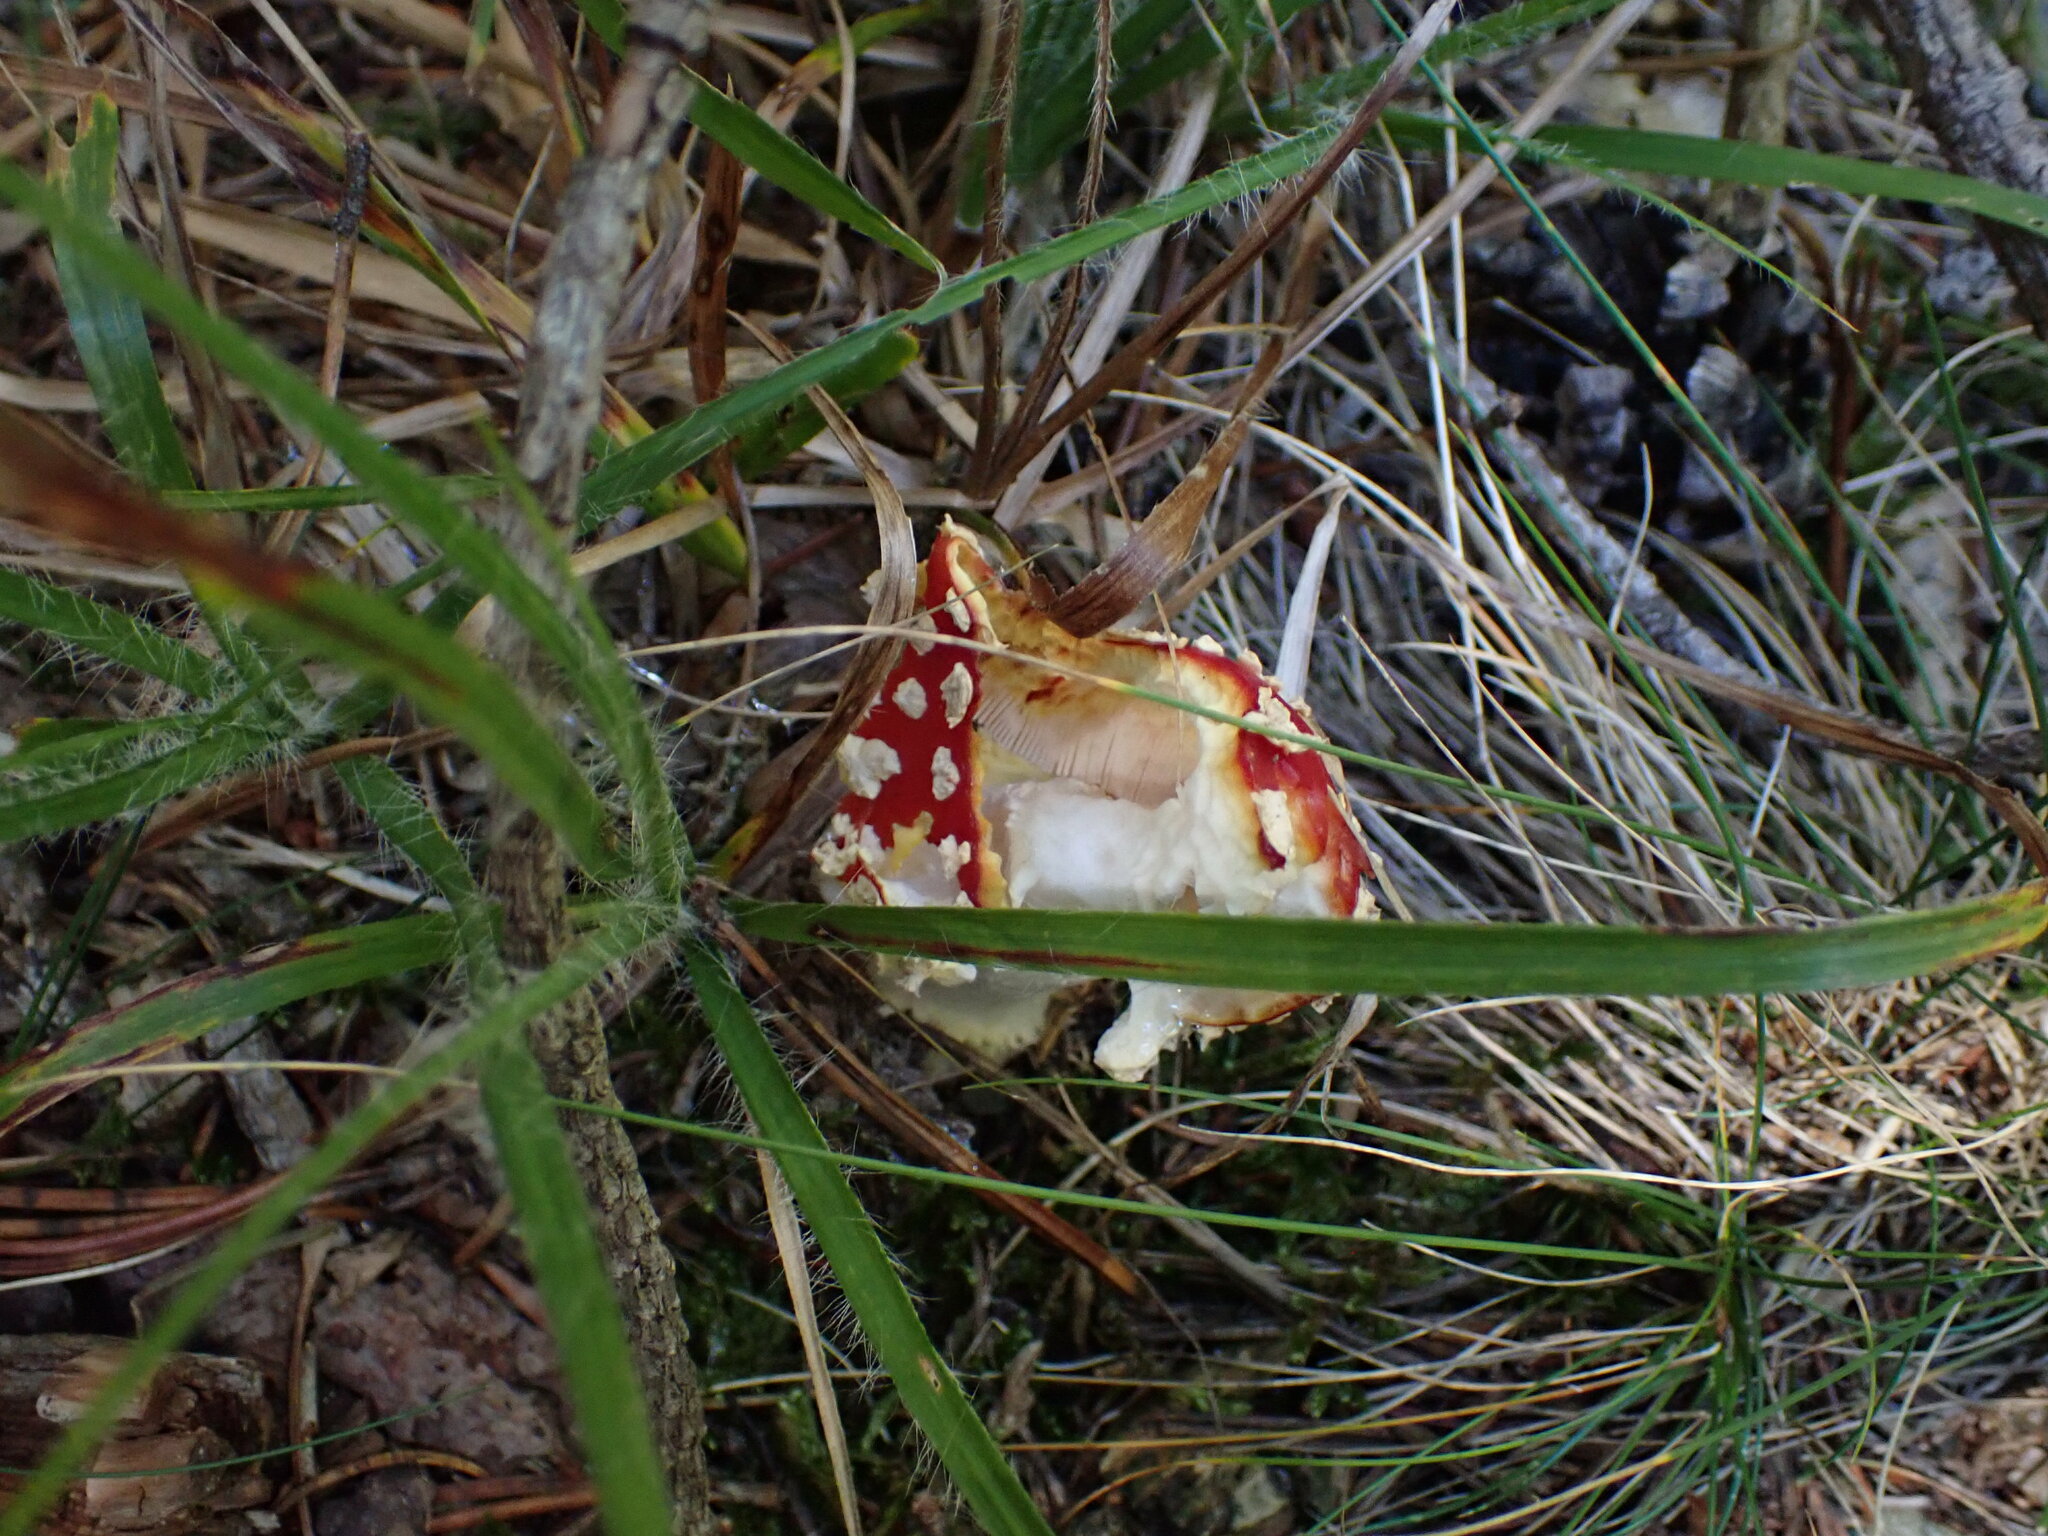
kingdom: Fungi
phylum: Basidiomycota
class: Agaricomycetes
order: Agaricales
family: Amanitaceae
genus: Amanita
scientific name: Amanita muscaria
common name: Fly agaric
